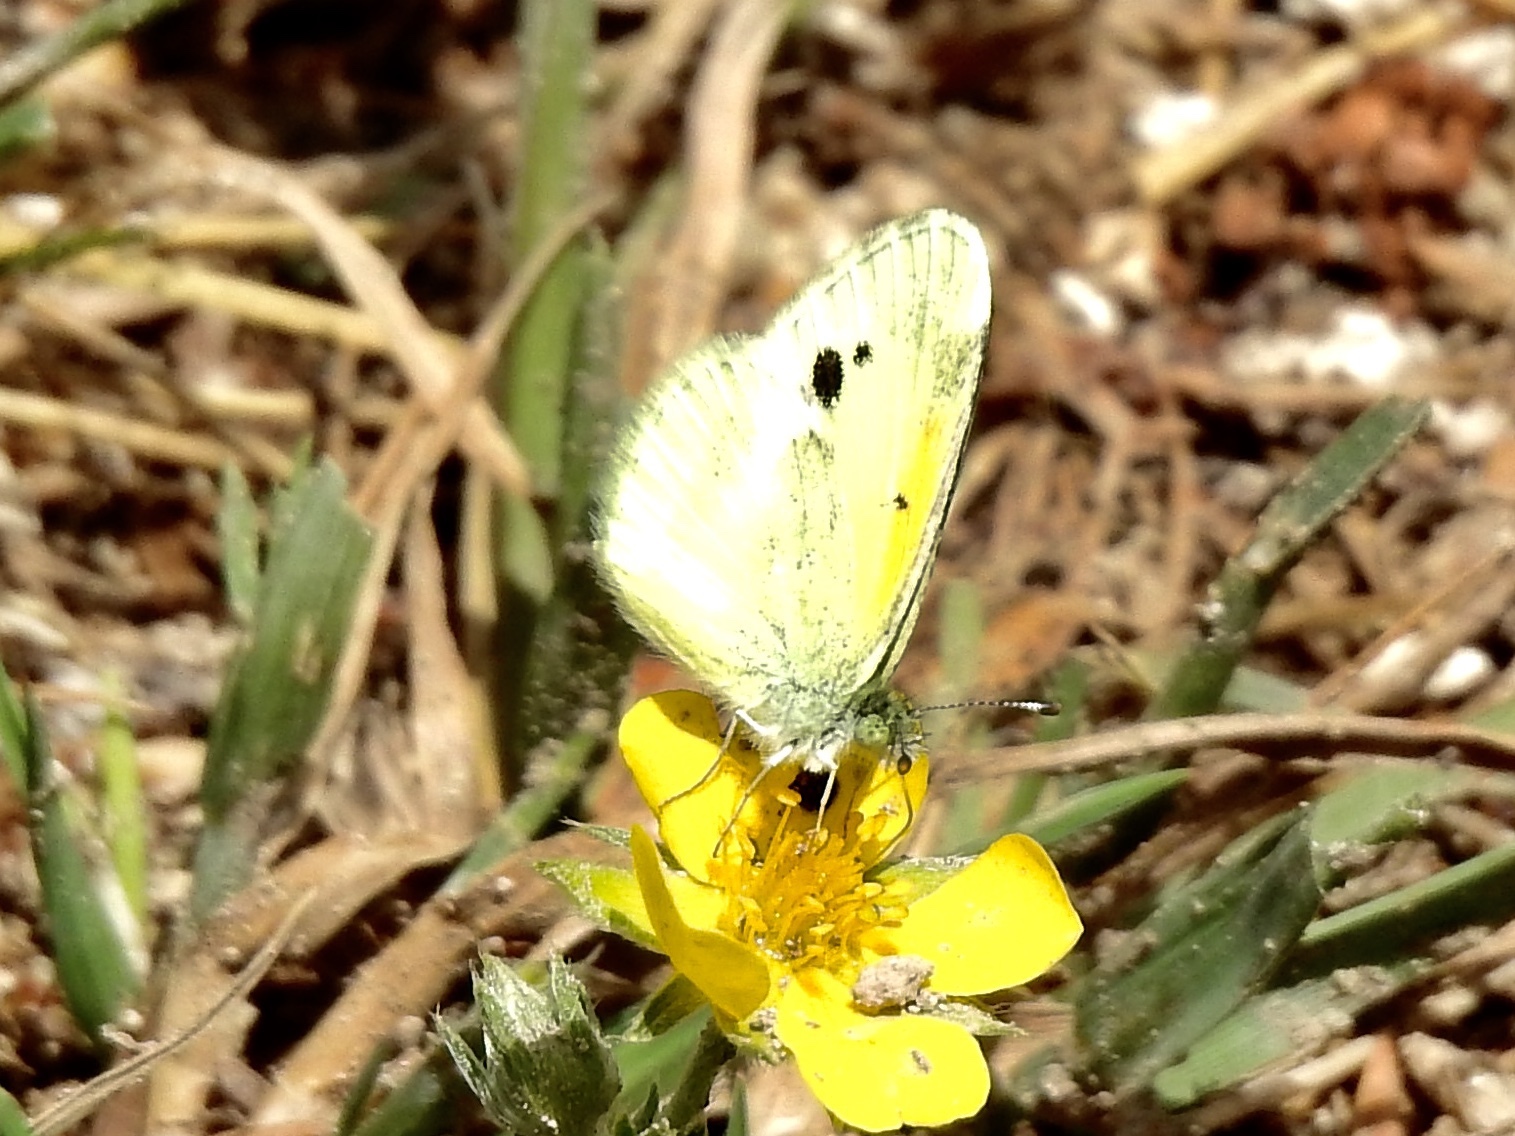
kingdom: Animalia
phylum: Arthropoda
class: Insecta
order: Lepidoptera
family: Pieridae
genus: Nathalis
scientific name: Nathalis iole
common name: Dainty sulphur
